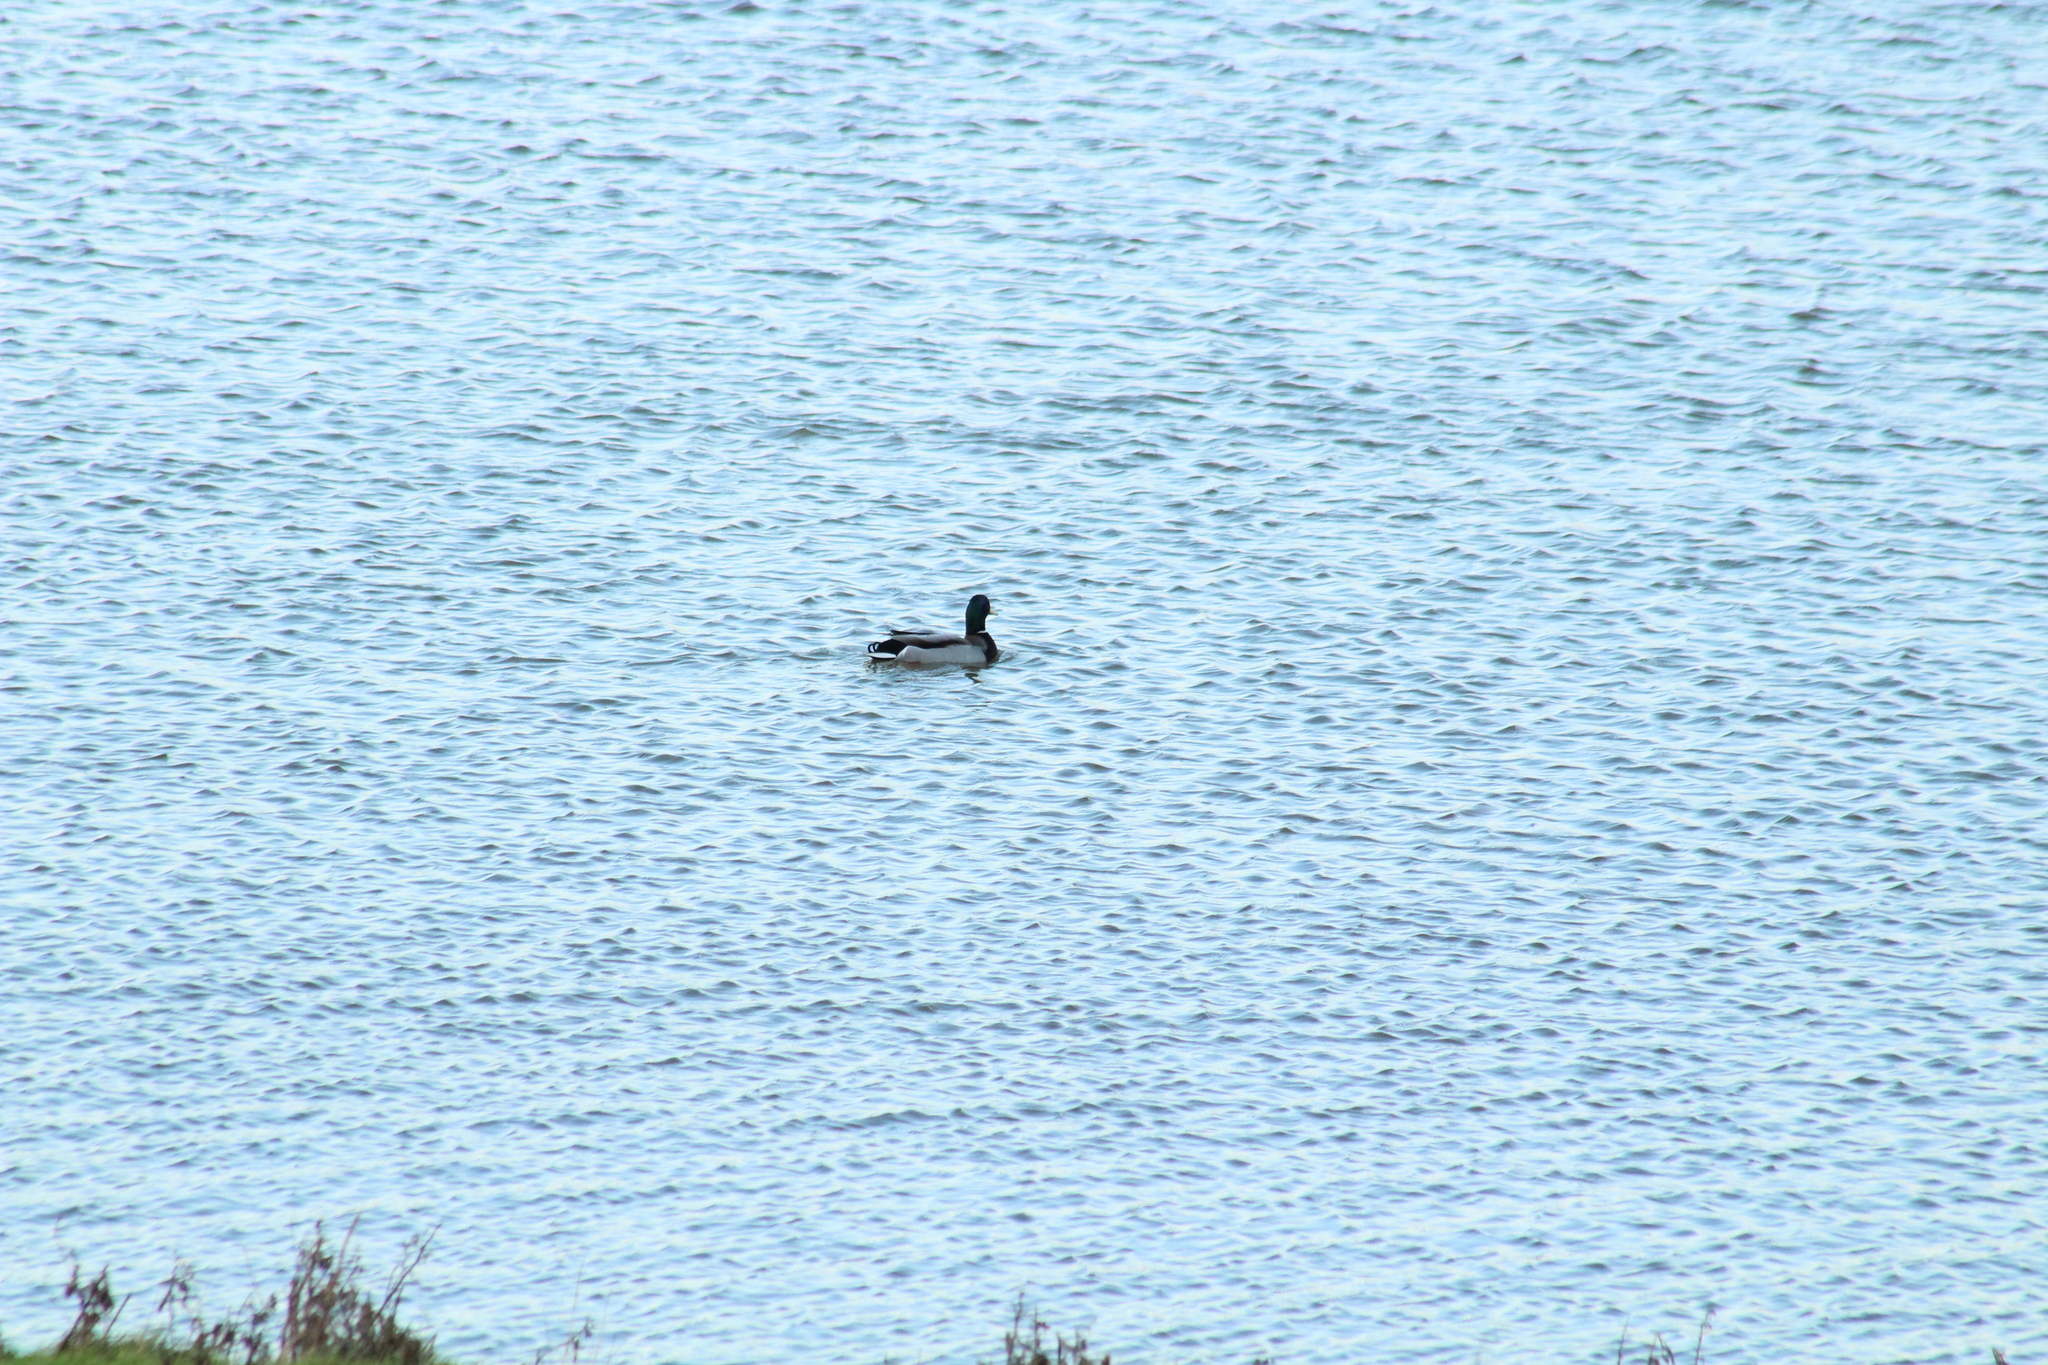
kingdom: Animalia
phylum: Chordata
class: Aves
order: Anseriformes
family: Anatidae
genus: Anas
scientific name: Anas platyrhynchos
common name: Mallard
